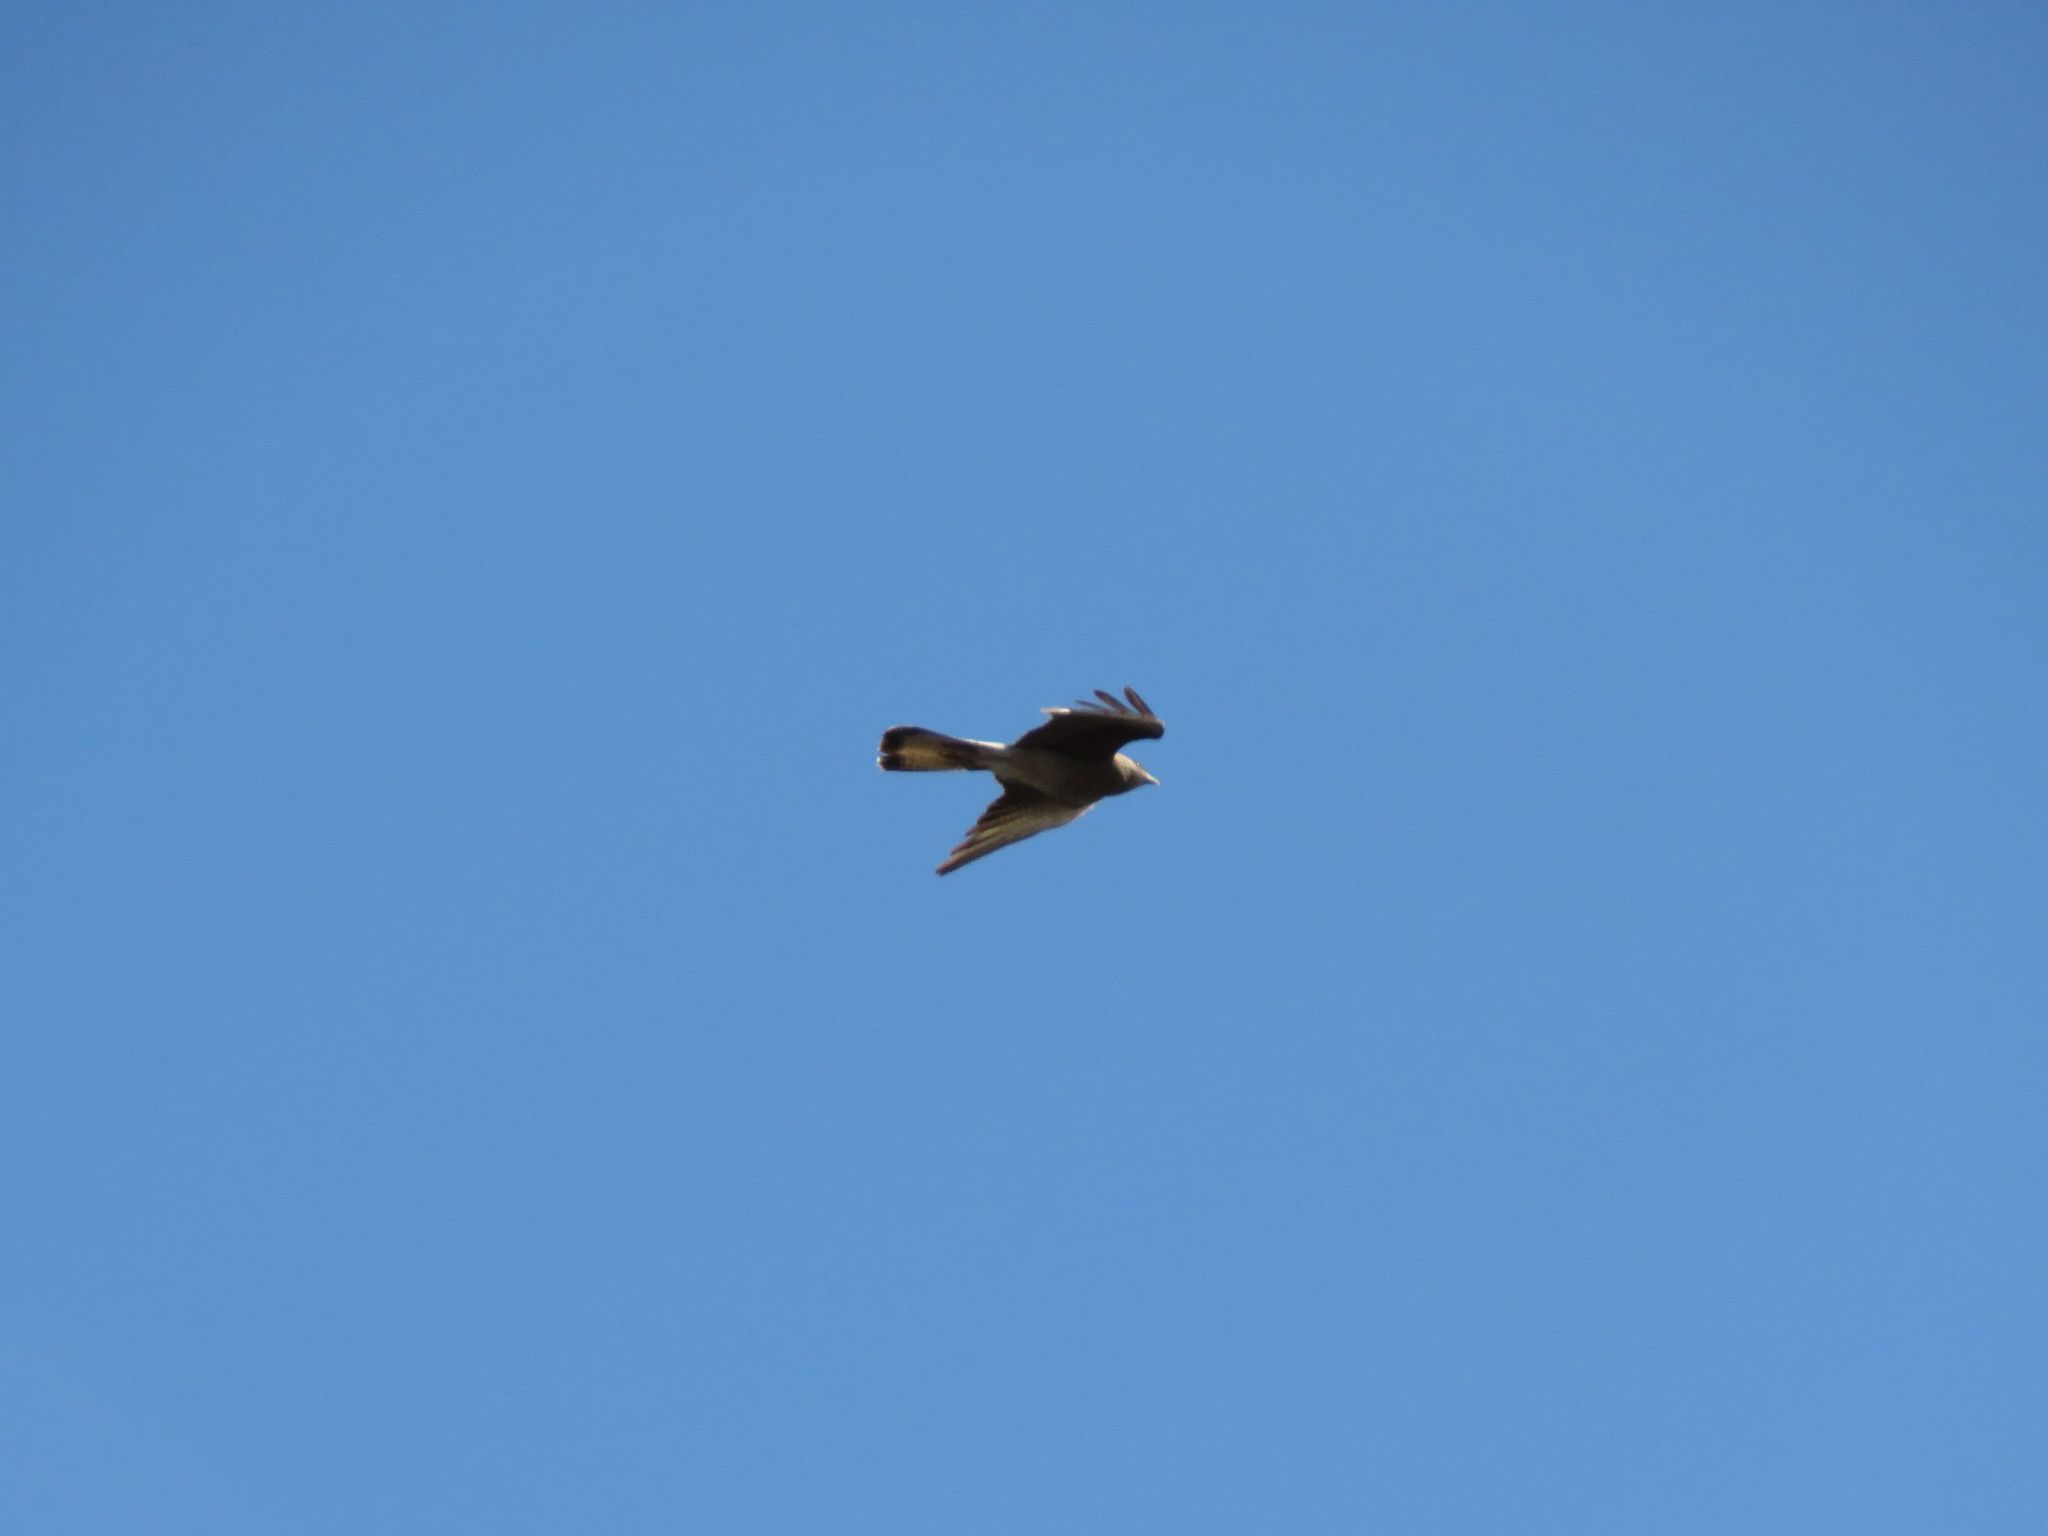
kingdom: Animalia
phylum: Chordata
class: Aves
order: Falconiformes
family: Falconidae
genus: Daptrius
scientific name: Daptrius
